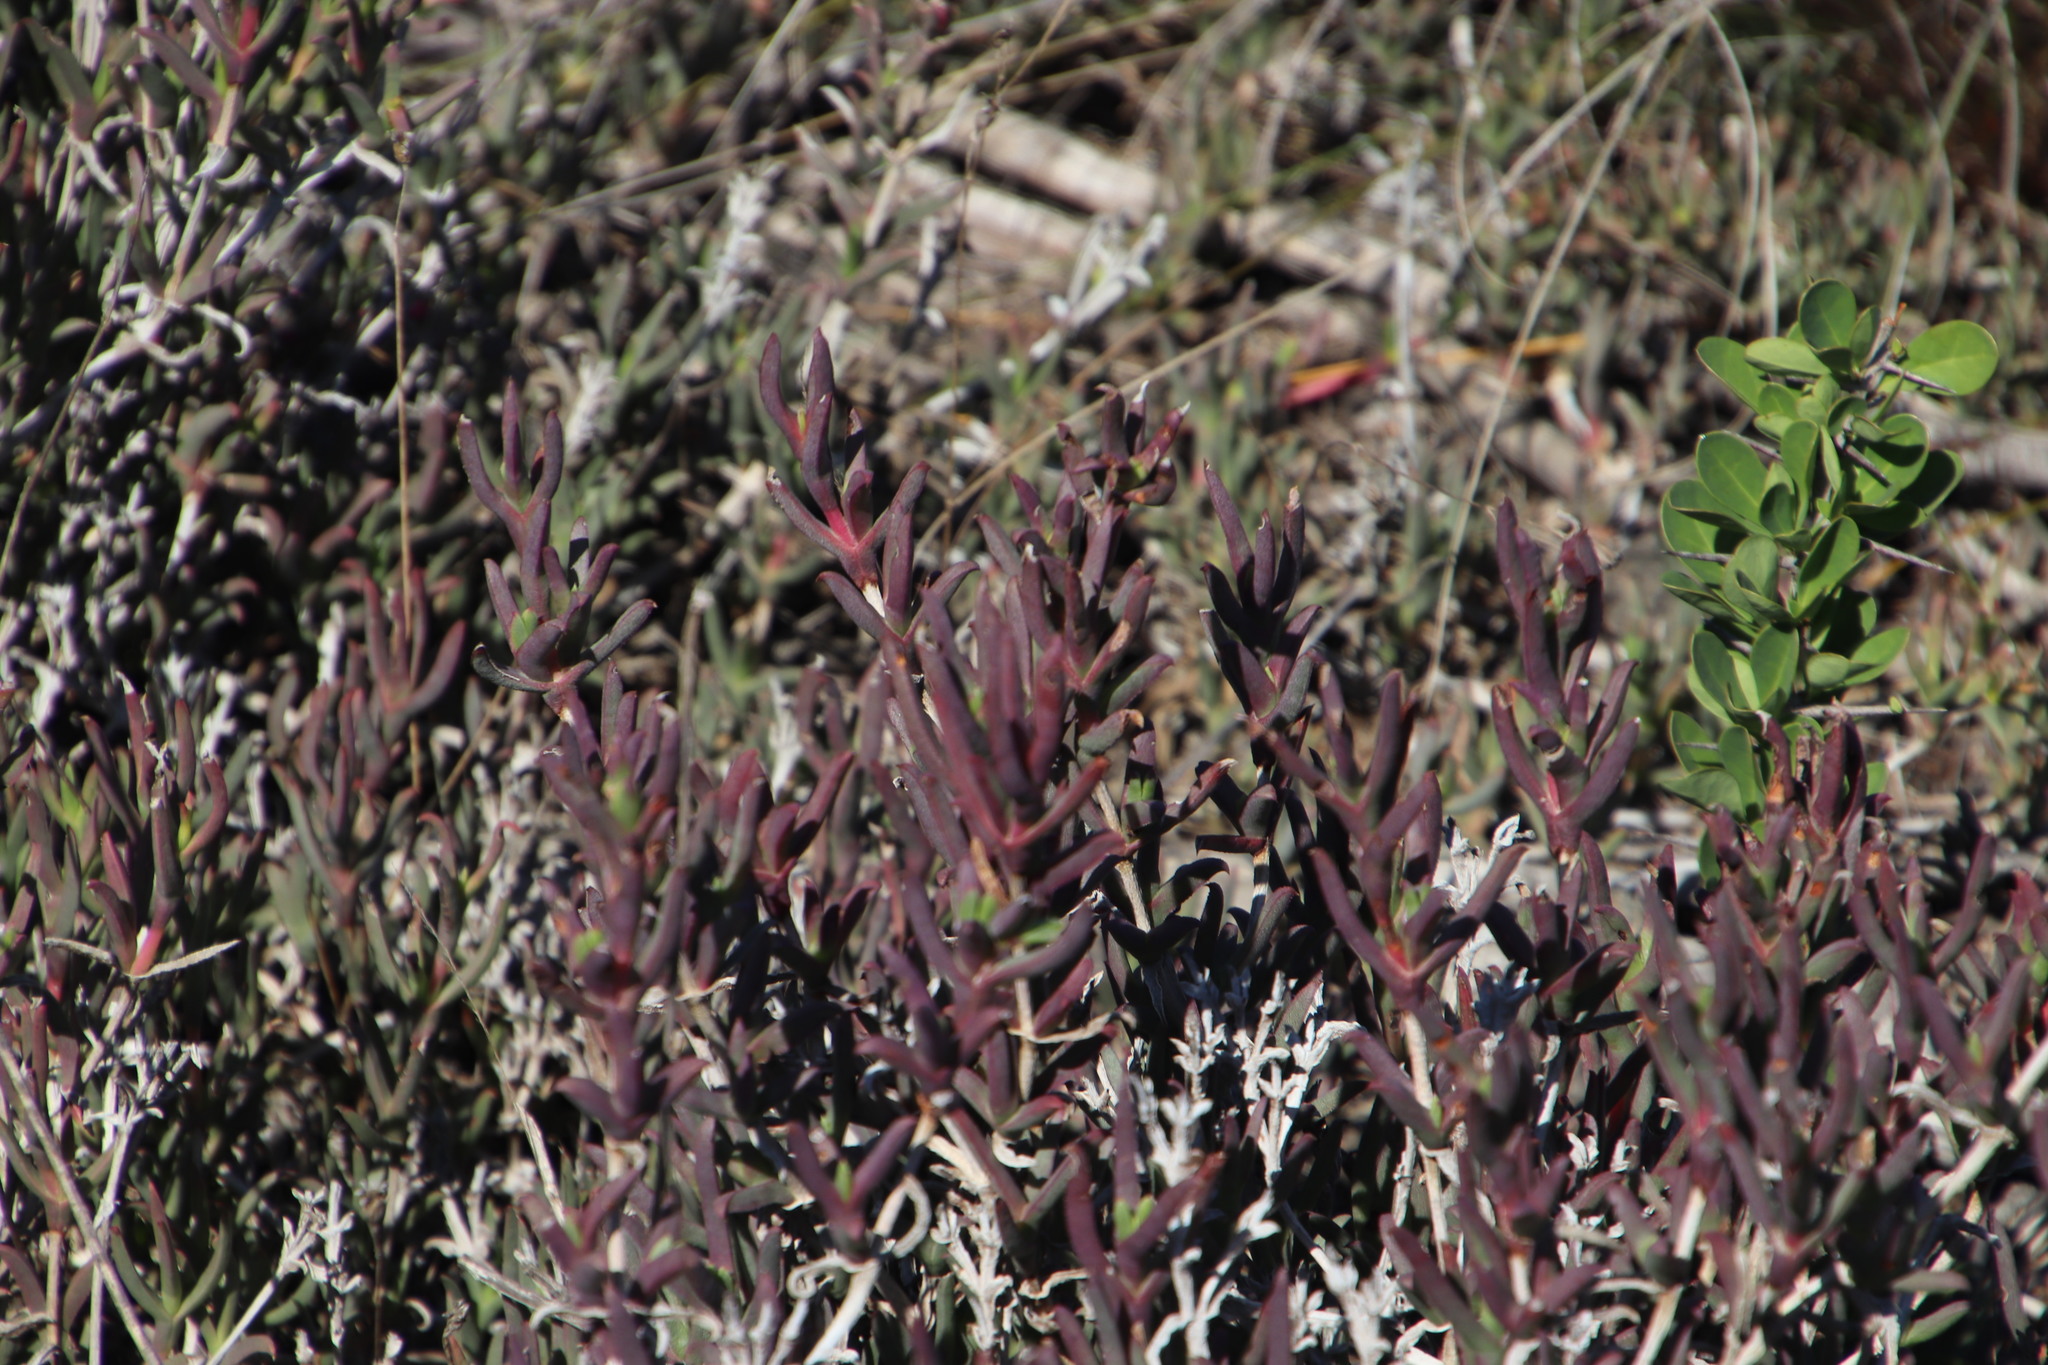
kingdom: Plantae
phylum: Tracheophyta
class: Magnoliopsida
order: Caryophyllales
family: Aizoaceae
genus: Ruschia
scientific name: Ruschia macowanii
